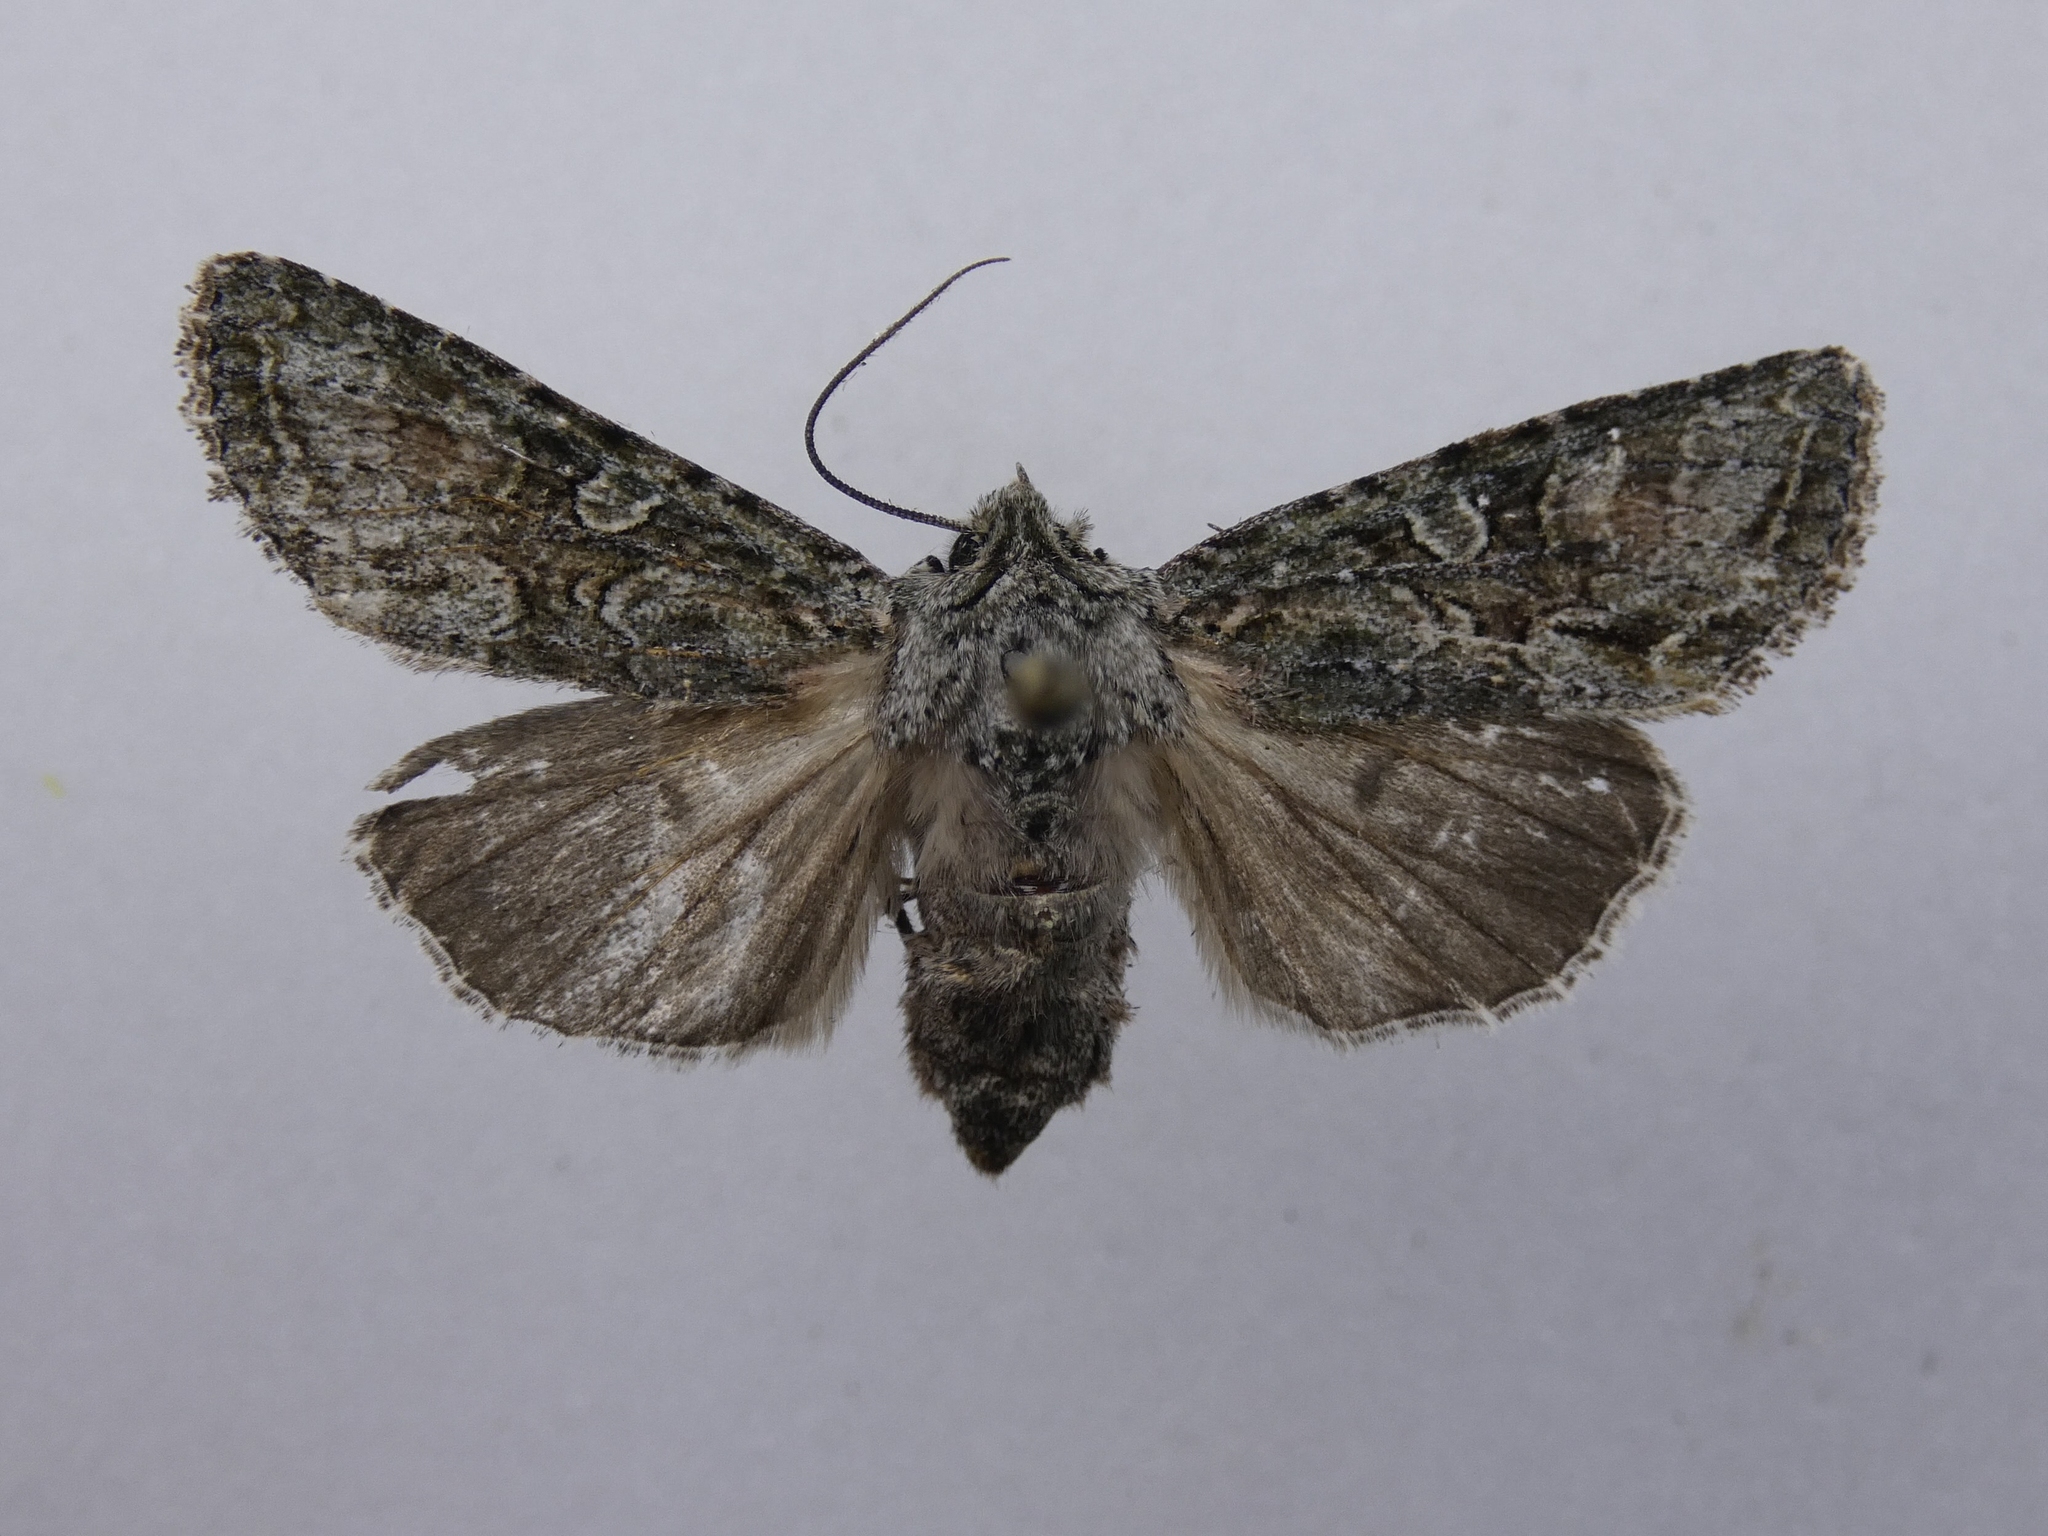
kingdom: Animalia
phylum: Arthropoda
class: Insecta
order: Lepidoptera
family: Noctuidae
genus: Ichneutica
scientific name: Ichneutica mutans
